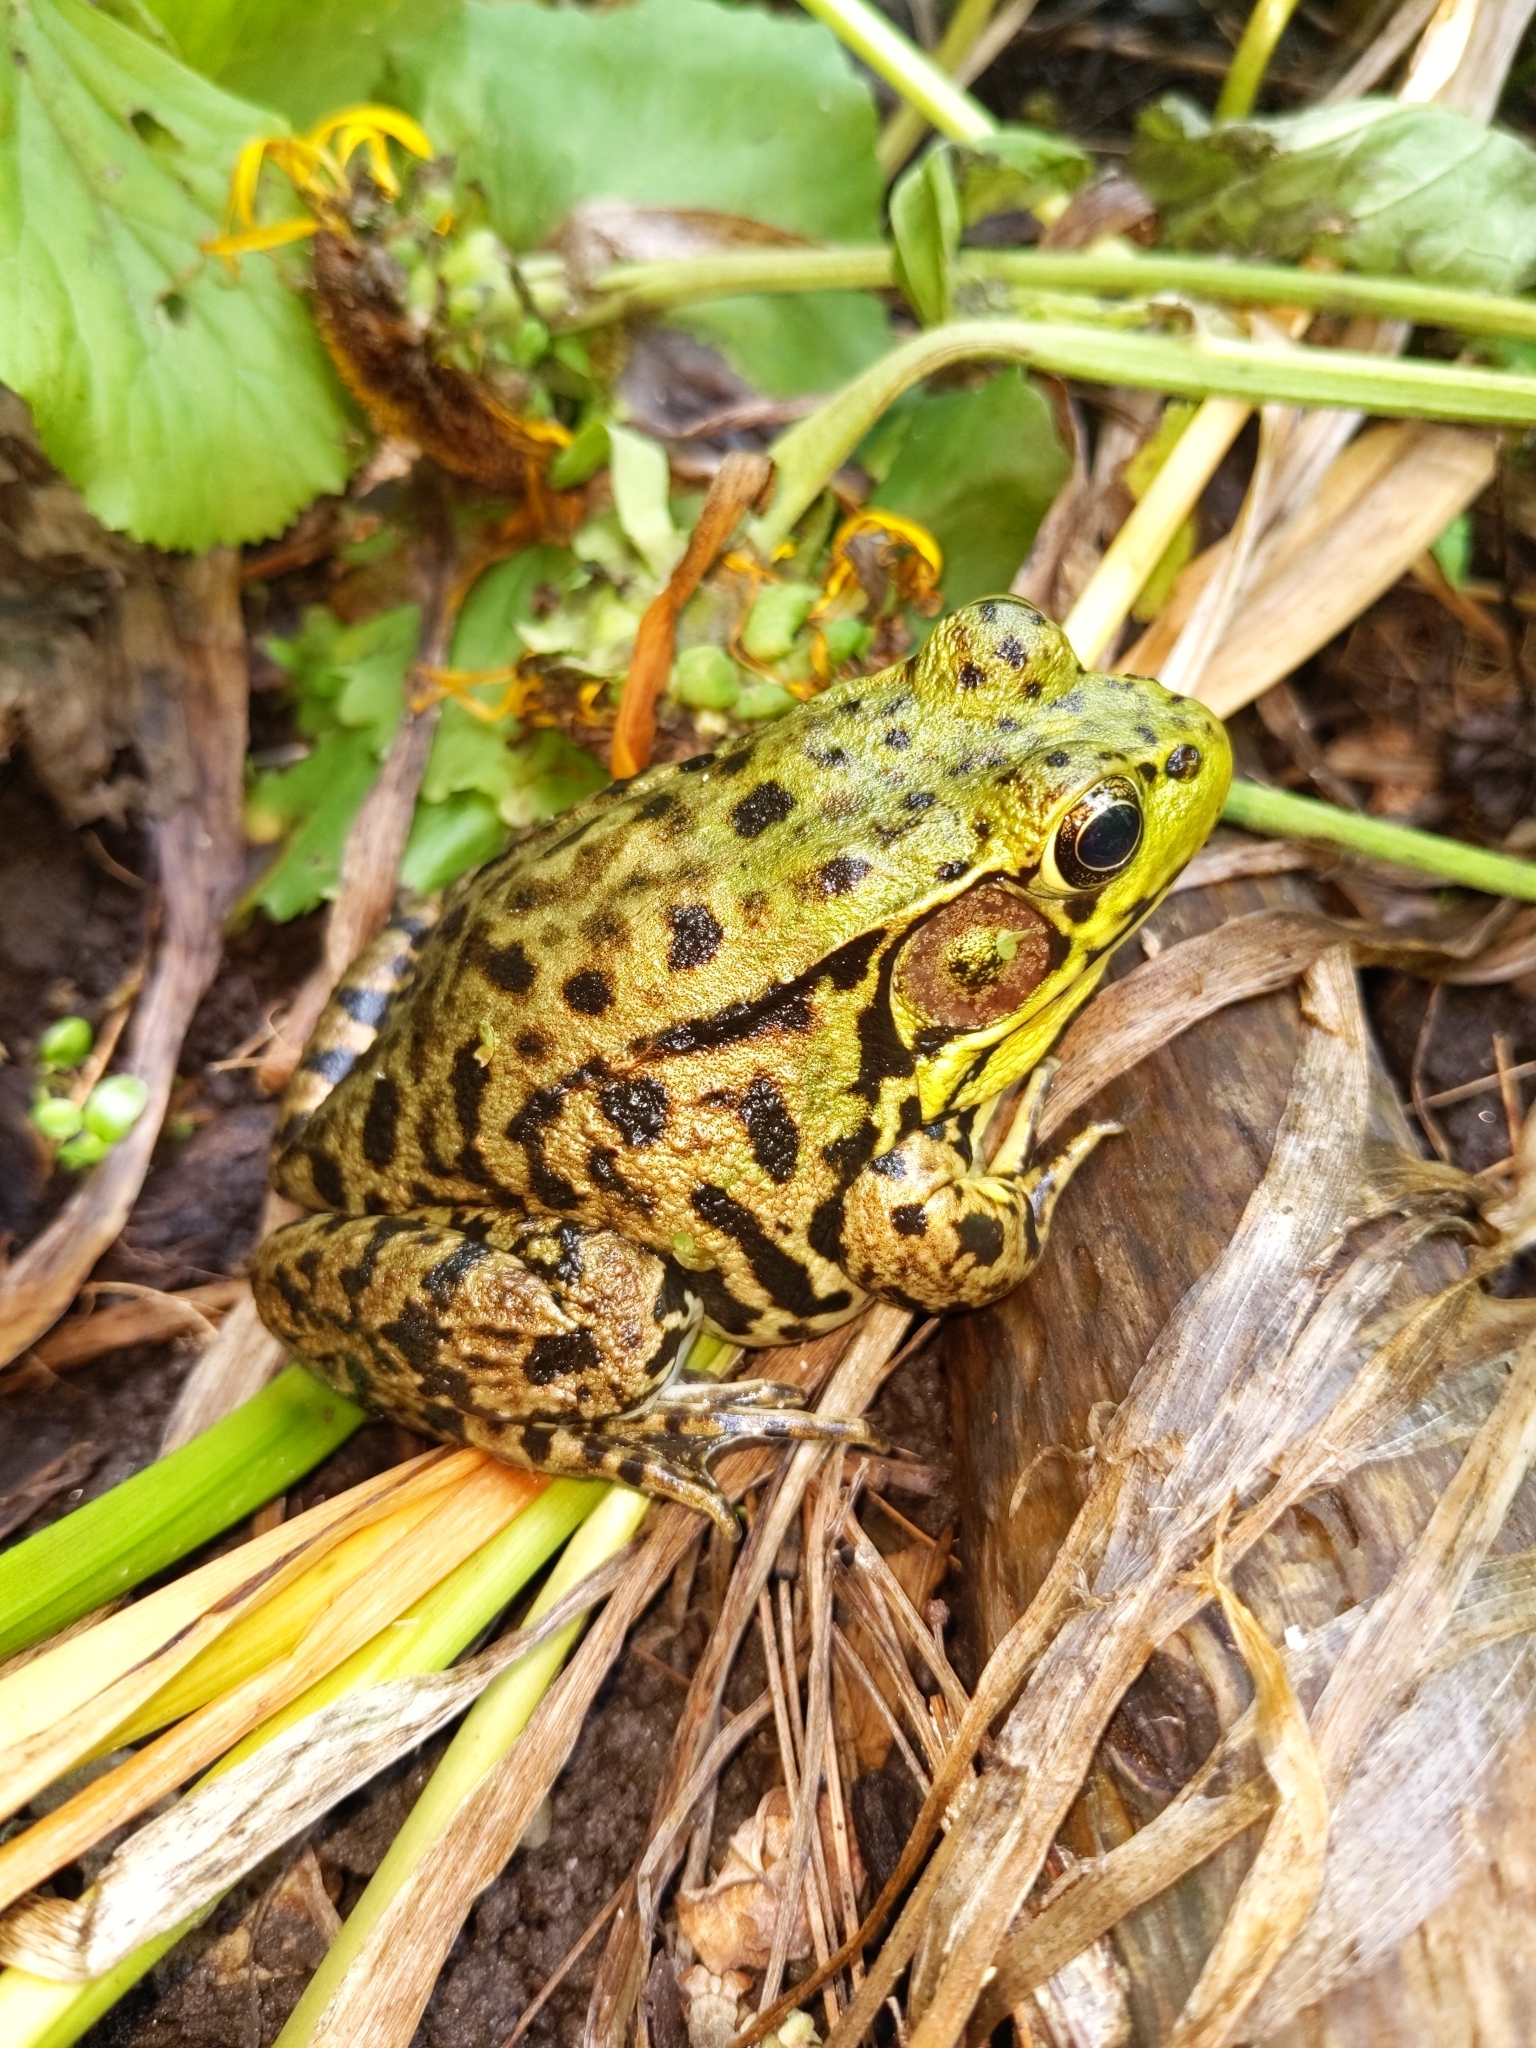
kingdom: Animalia
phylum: Chordata
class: Amphibia
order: Anura
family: Ranidae
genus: Lithobates
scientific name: Lithobates clamitans
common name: Green frog
